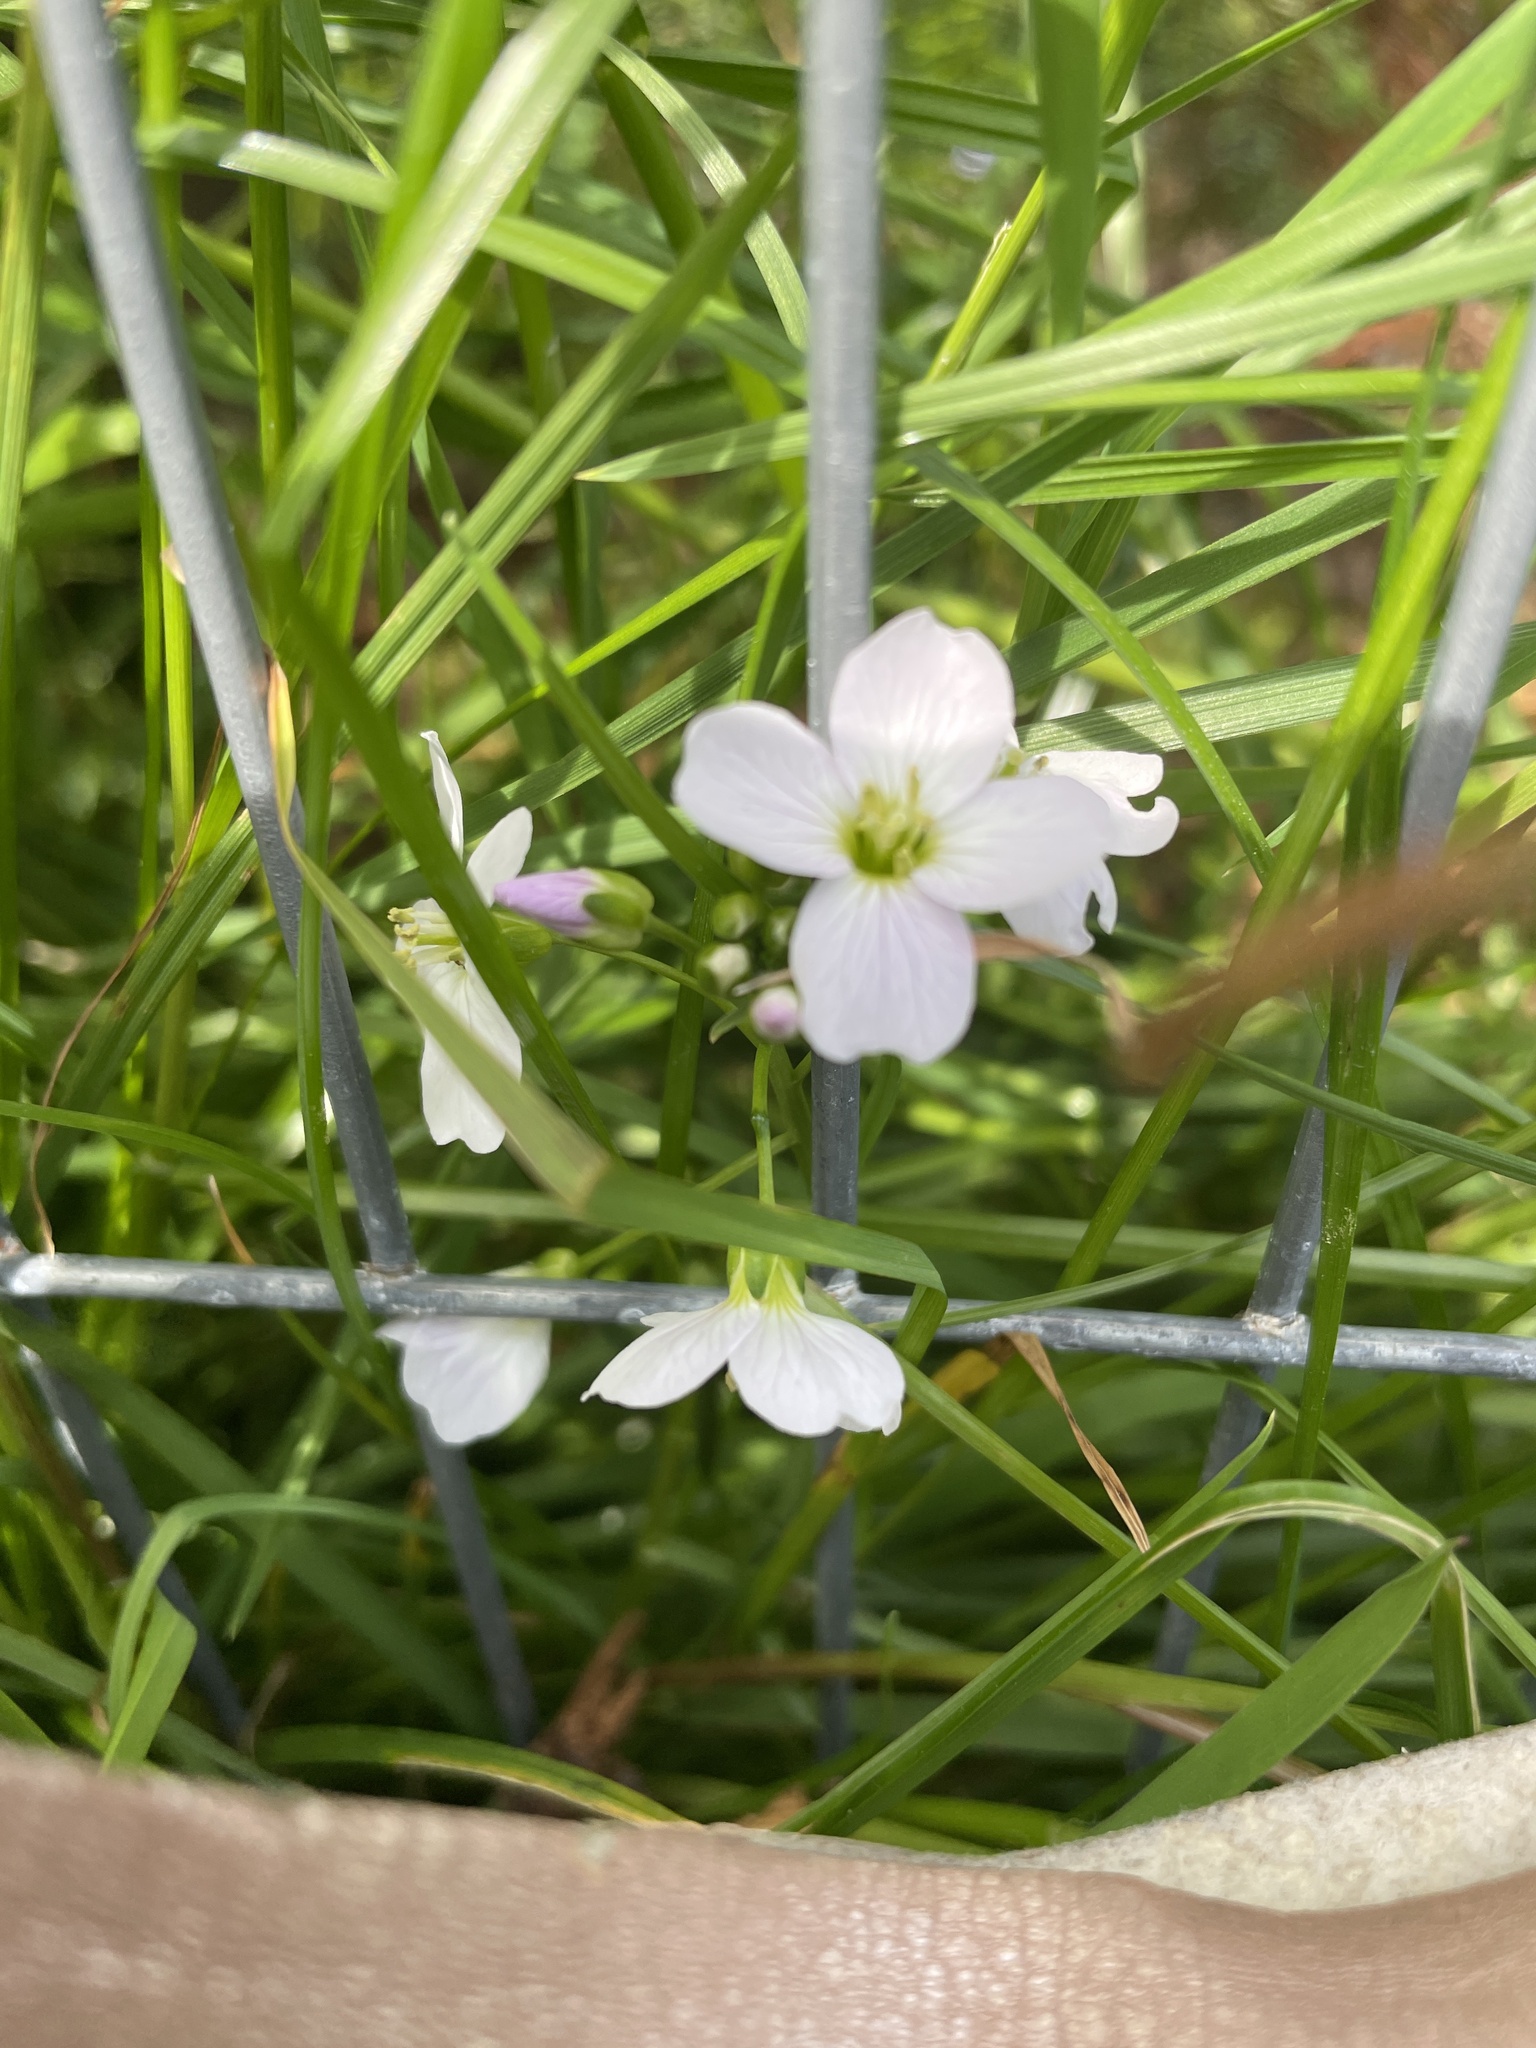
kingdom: Plantae
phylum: Tracheophyta
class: Magnoliopsida
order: Brassicales
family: Brassicaceae
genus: Cardamine
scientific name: Cardamine pratensis
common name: Cuckoo flower
